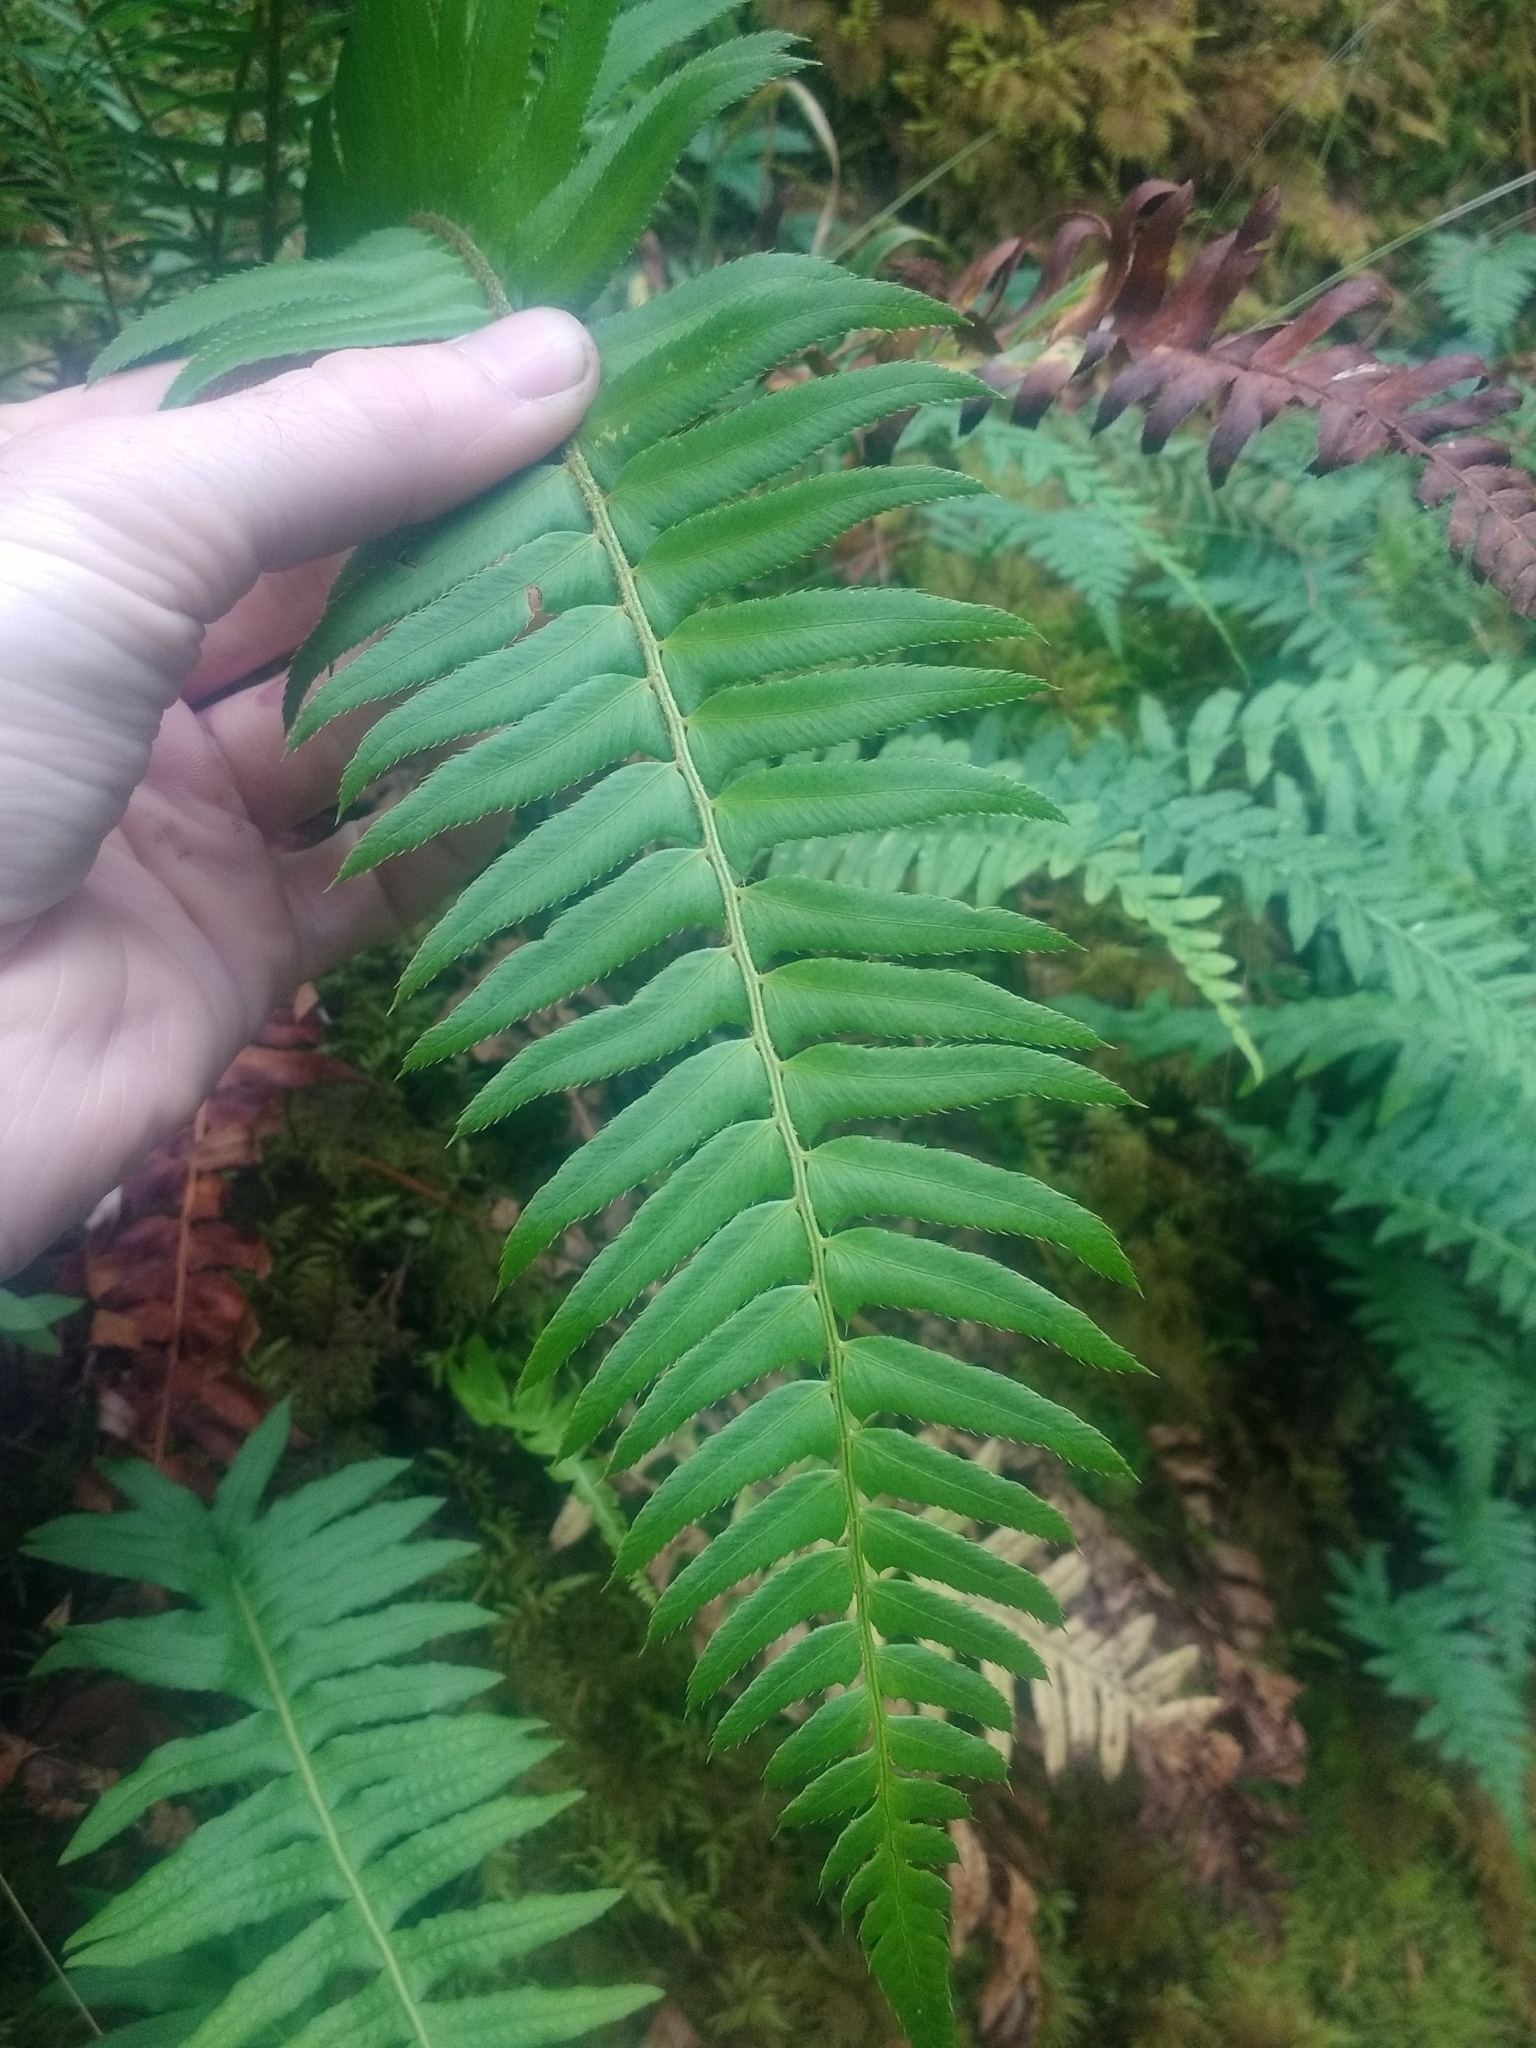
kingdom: Plantae
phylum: Tracheophyta
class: Polypodiopsida
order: Polypodiales
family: Dryopteridaceae
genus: Polystichum
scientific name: Polystichum munitum
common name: Western sword-fern
